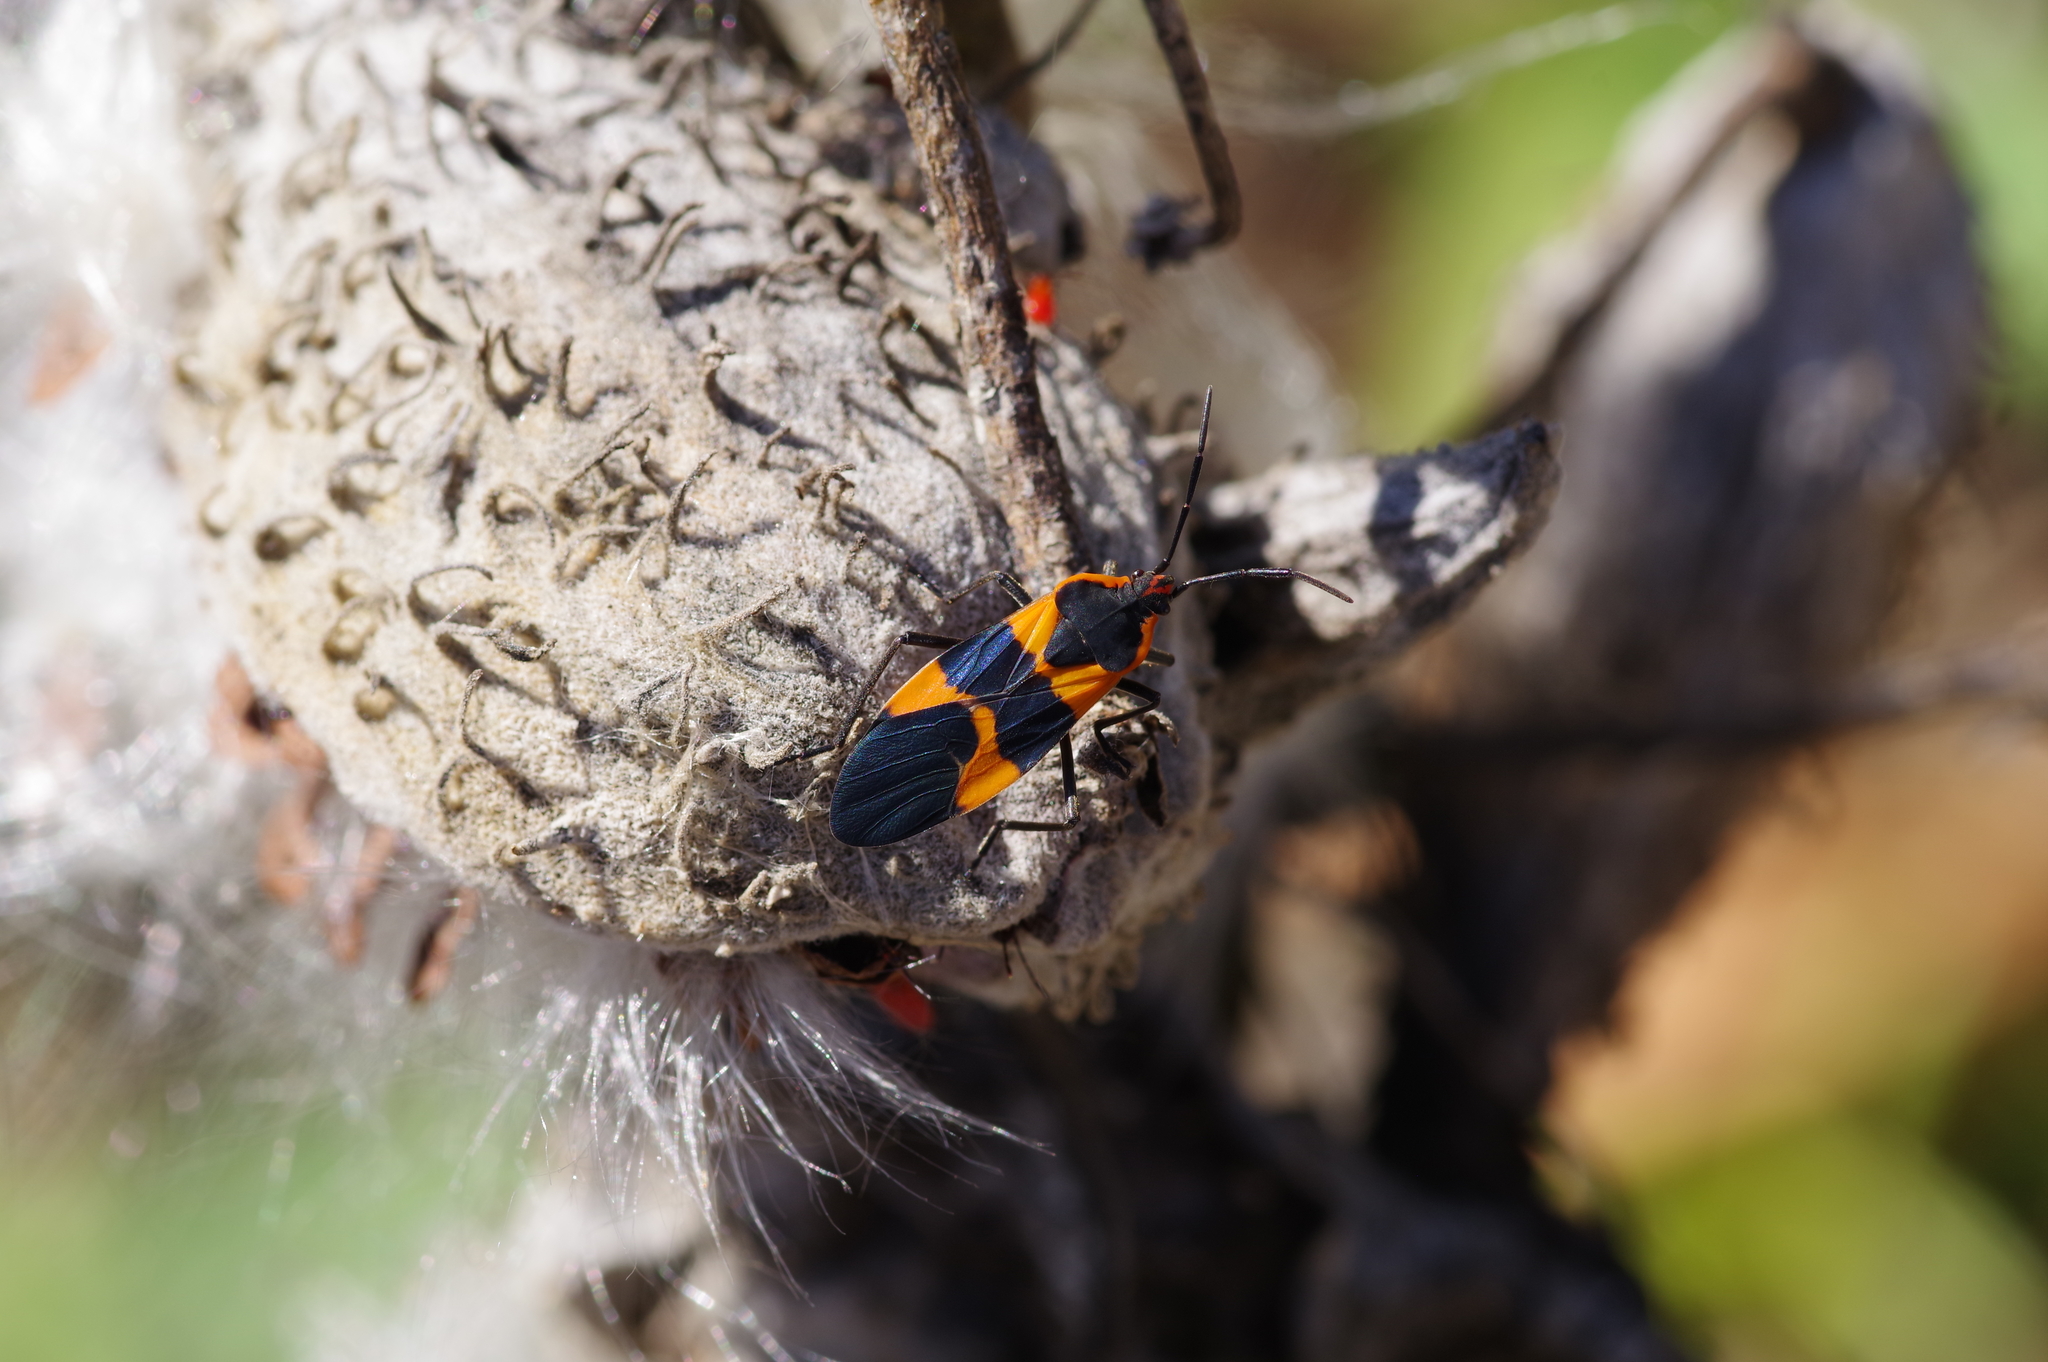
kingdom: Animalia
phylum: Arthropoda
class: Insecta
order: Hemiptera
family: Lygaeidae
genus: Oncopeltus
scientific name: Oncopeltus fasciatus
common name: Large milkweed bug
